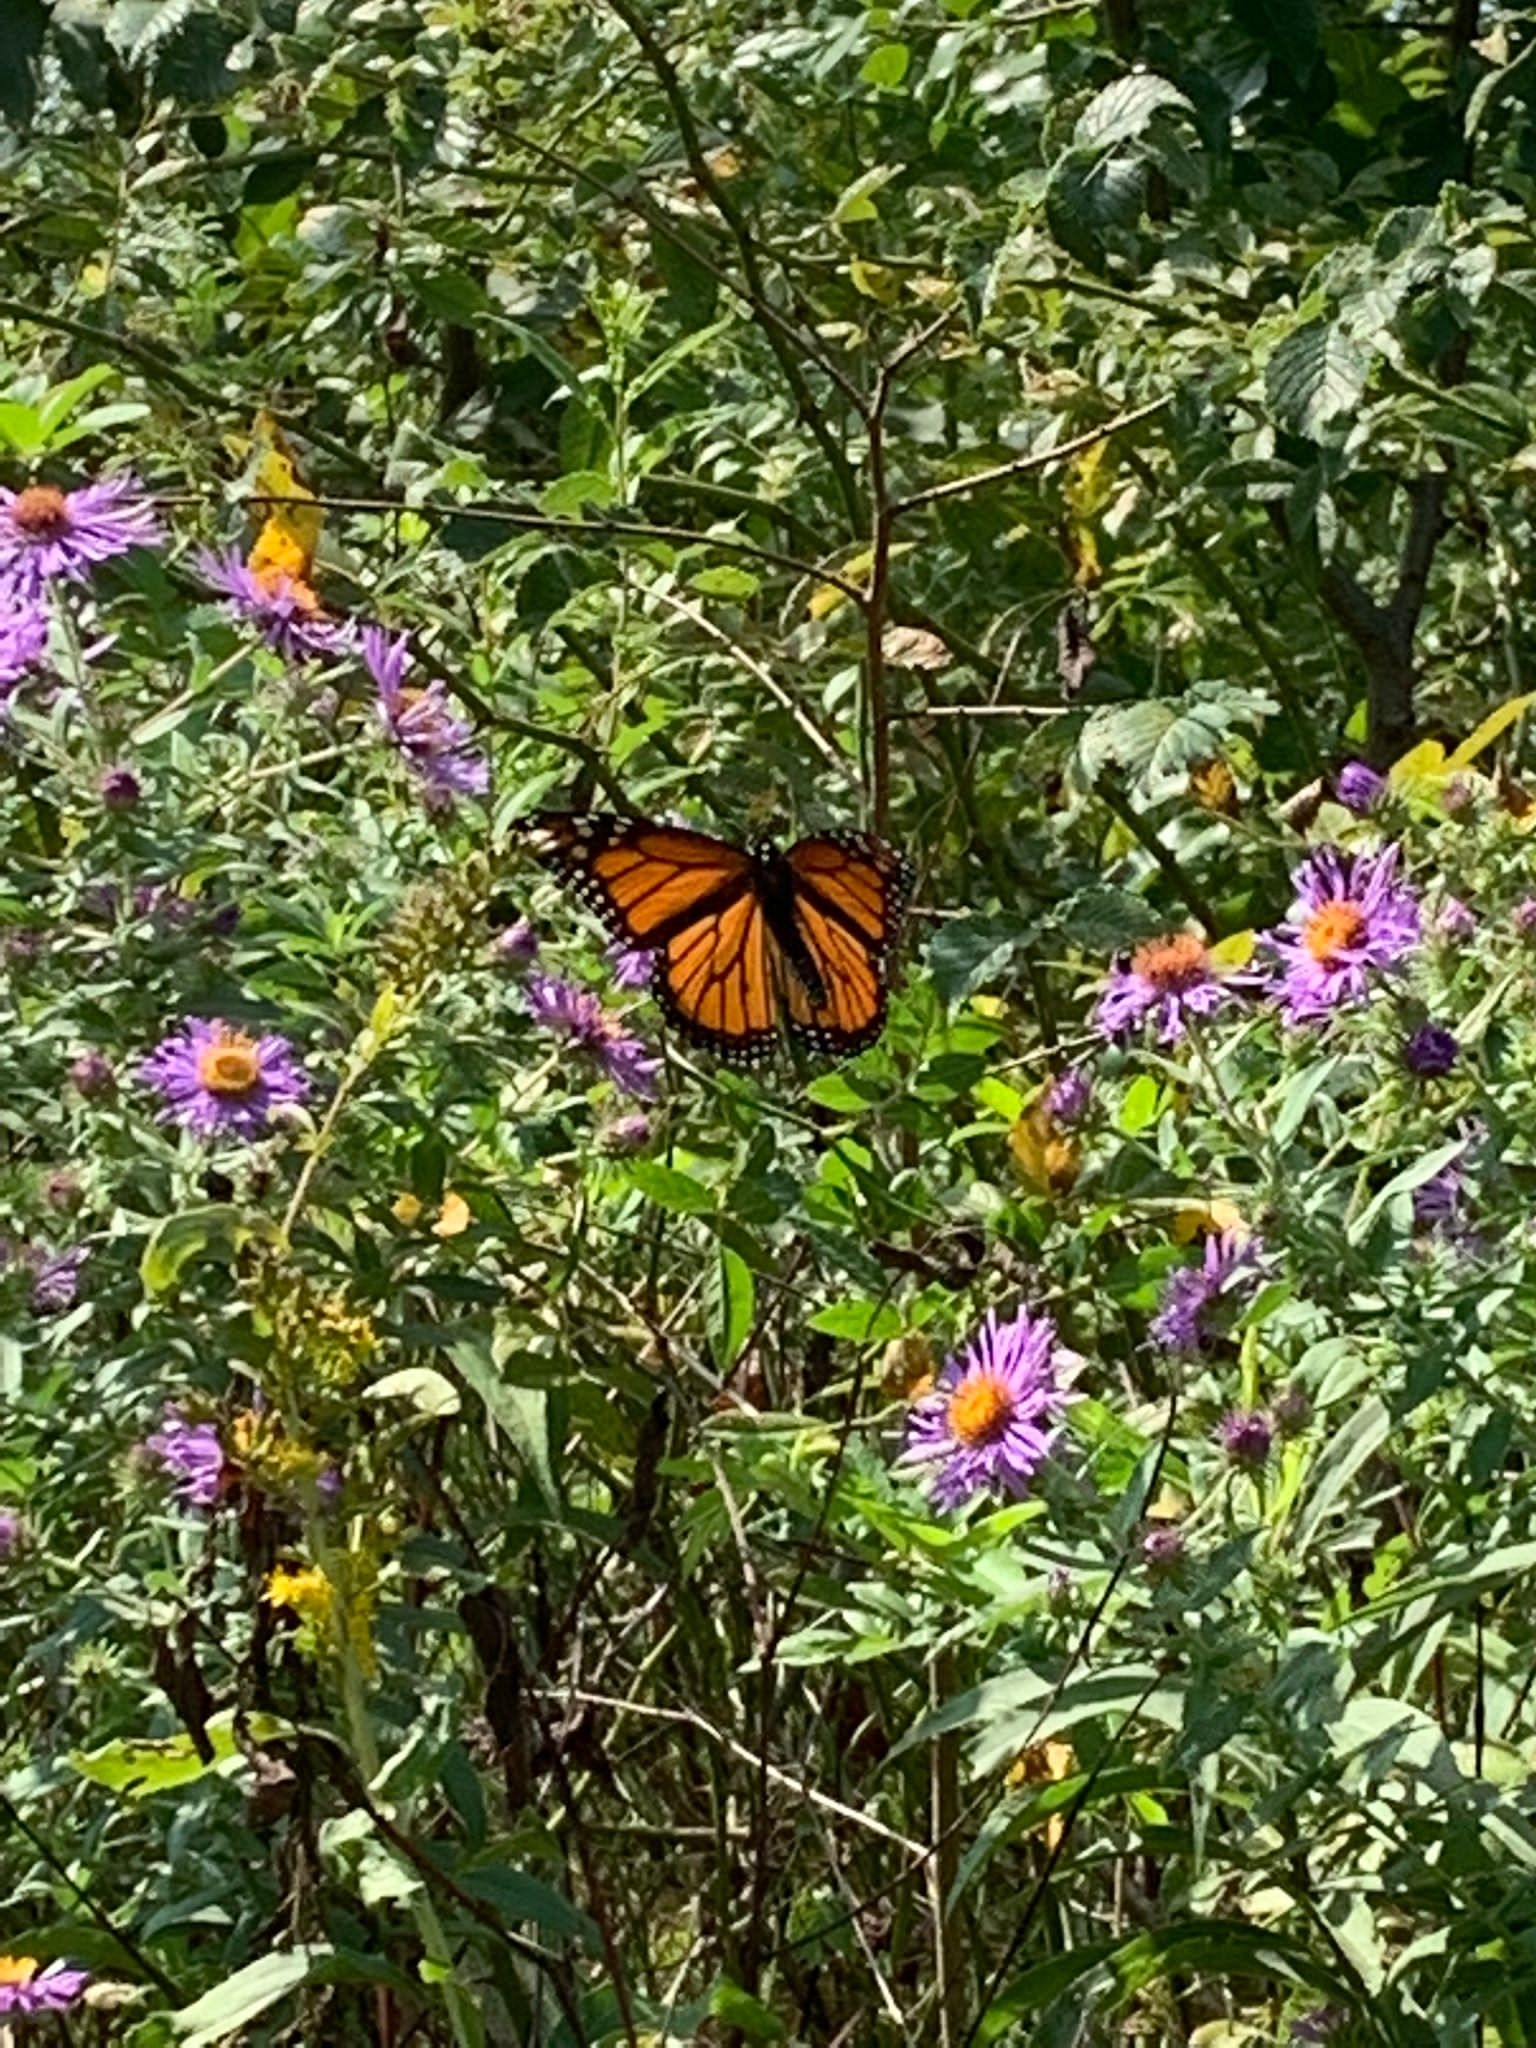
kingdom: Animalia
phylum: Arthropoda
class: Insecta
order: Lepidoptera
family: Nymphalidae
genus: Danaus
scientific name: Danaus plexippus
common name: Monarch
